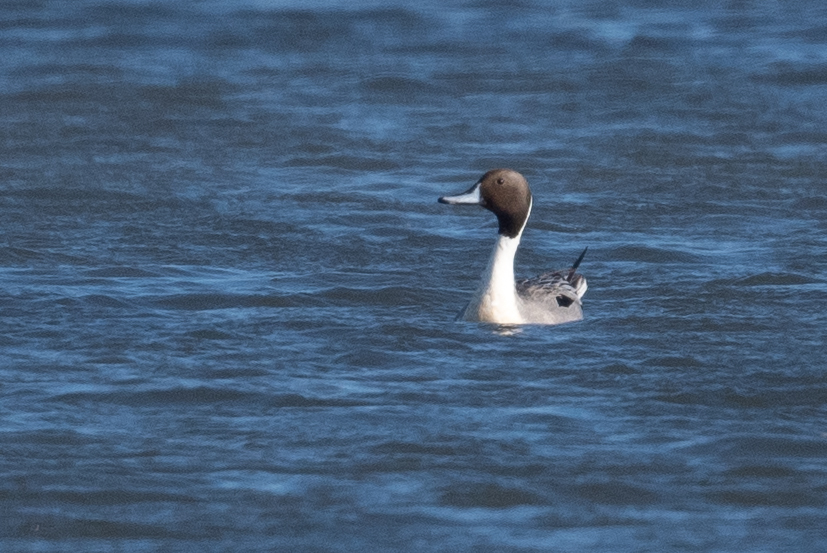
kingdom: Animalia
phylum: Chordata
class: Aves
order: Anseriformes
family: Anatidae
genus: Anas
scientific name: Anas acuta
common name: Northern pintail
